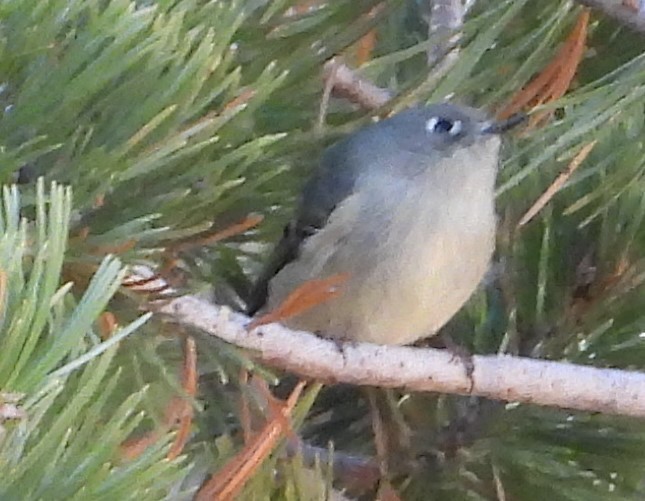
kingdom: Animalia
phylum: Chordata
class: Aves
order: Passeriformes
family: Regulidae
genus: Regulus
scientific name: Regulus calendula
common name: Ruby-crowned kinglet
